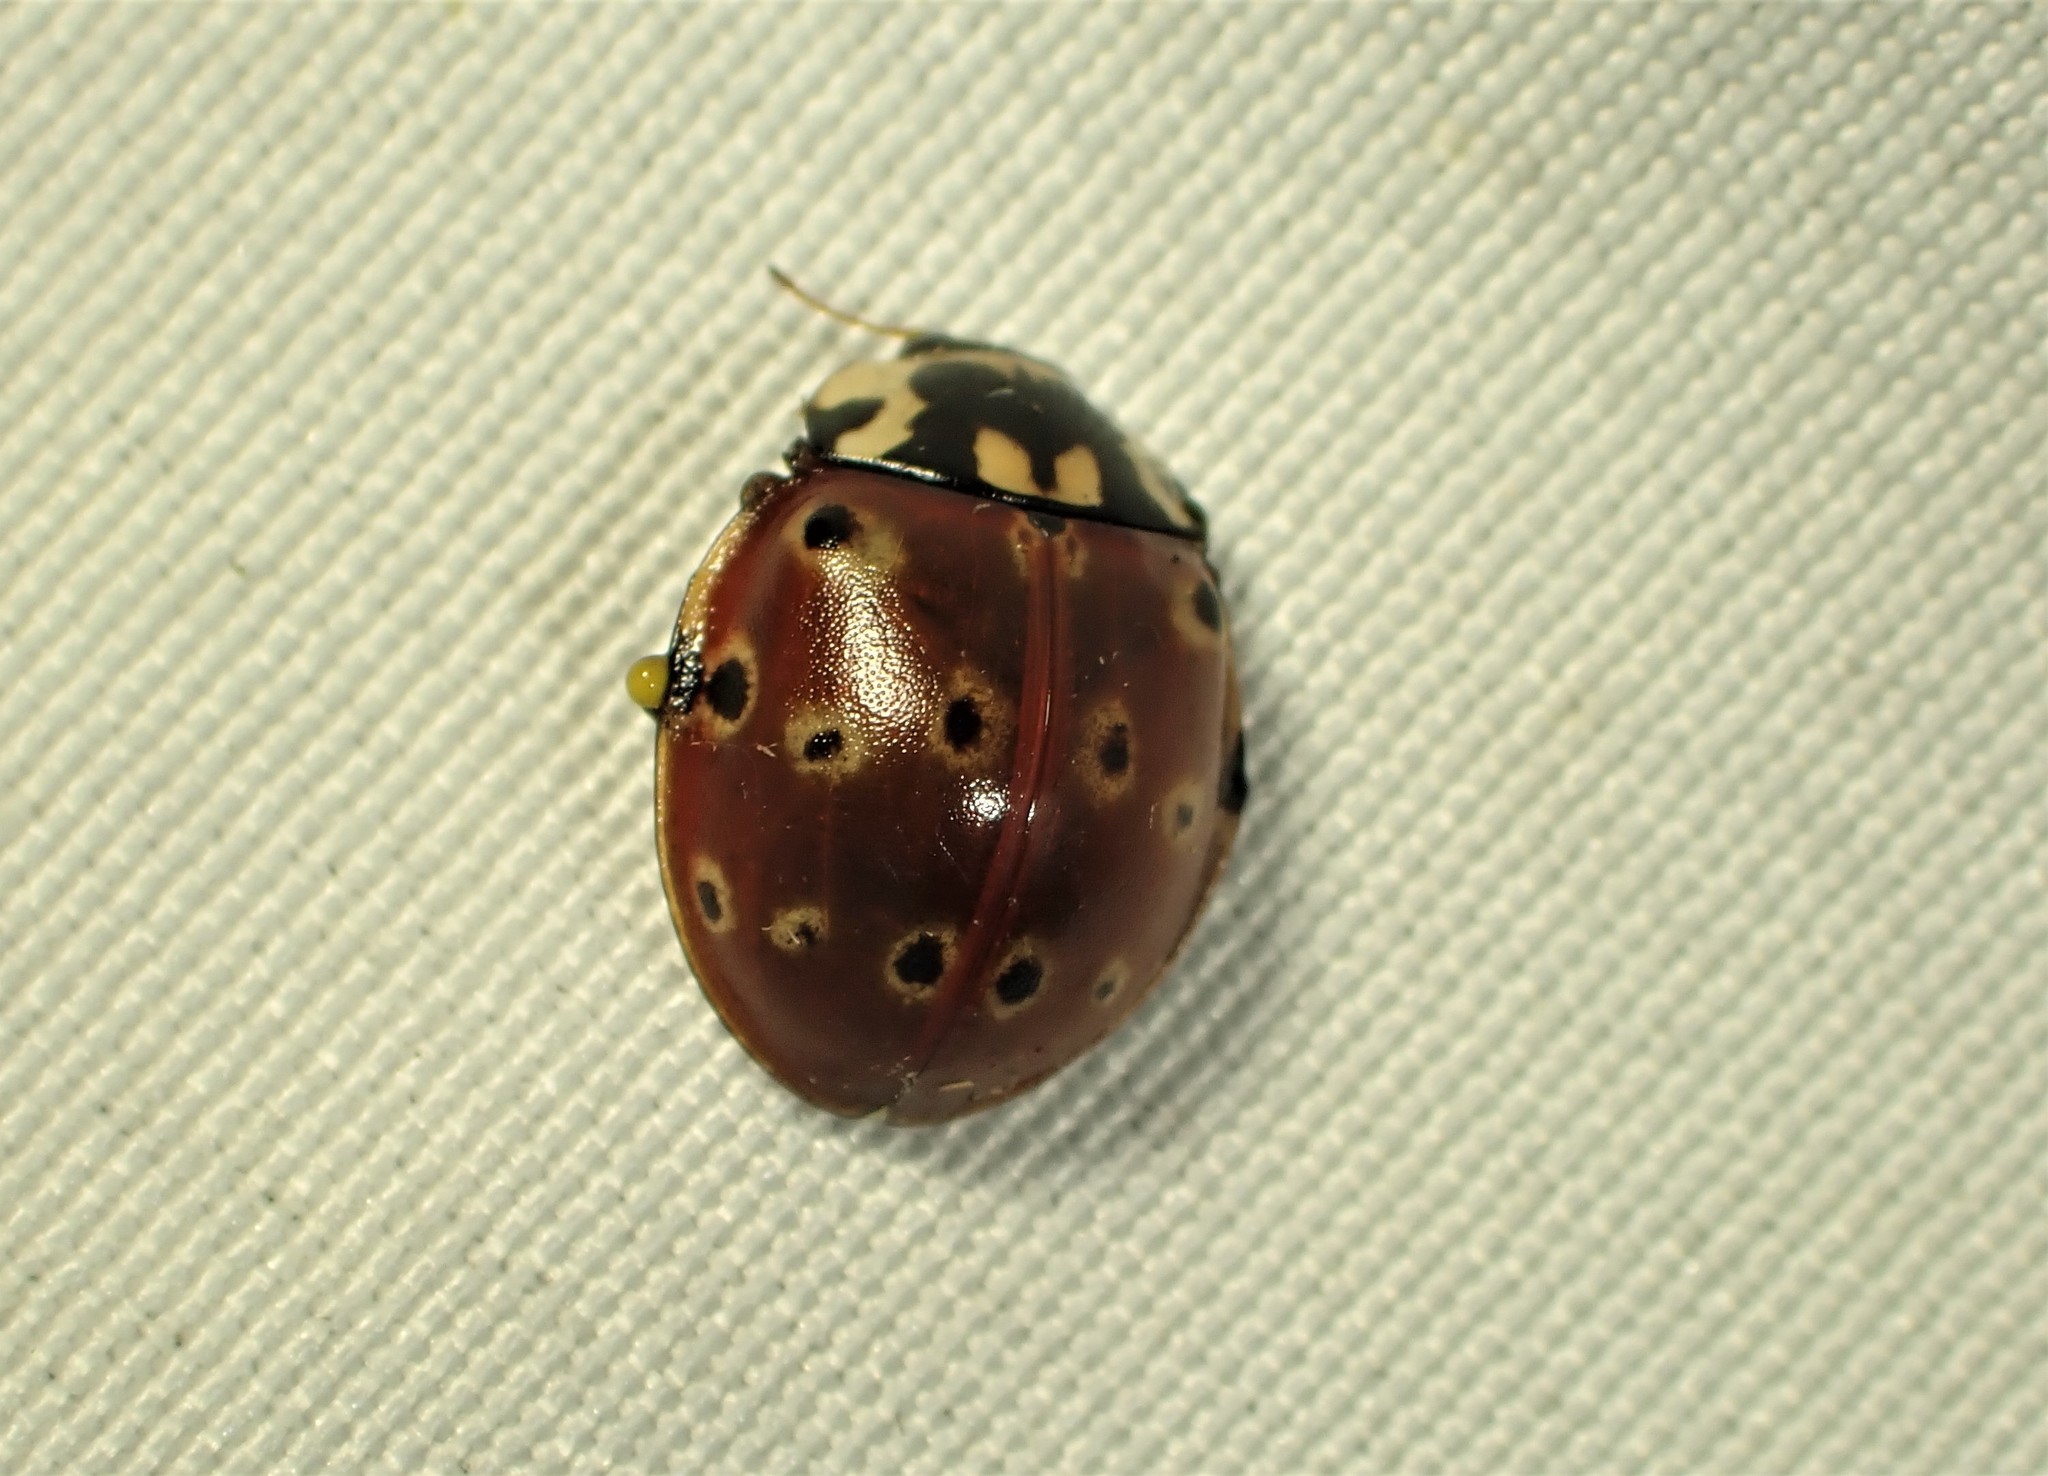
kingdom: Animalia
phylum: Arthropoda
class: Insecta
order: Coleoptera
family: Coccinellidae
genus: Anatis
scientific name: Anatis mali
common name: Eye-spotted lady beetle
